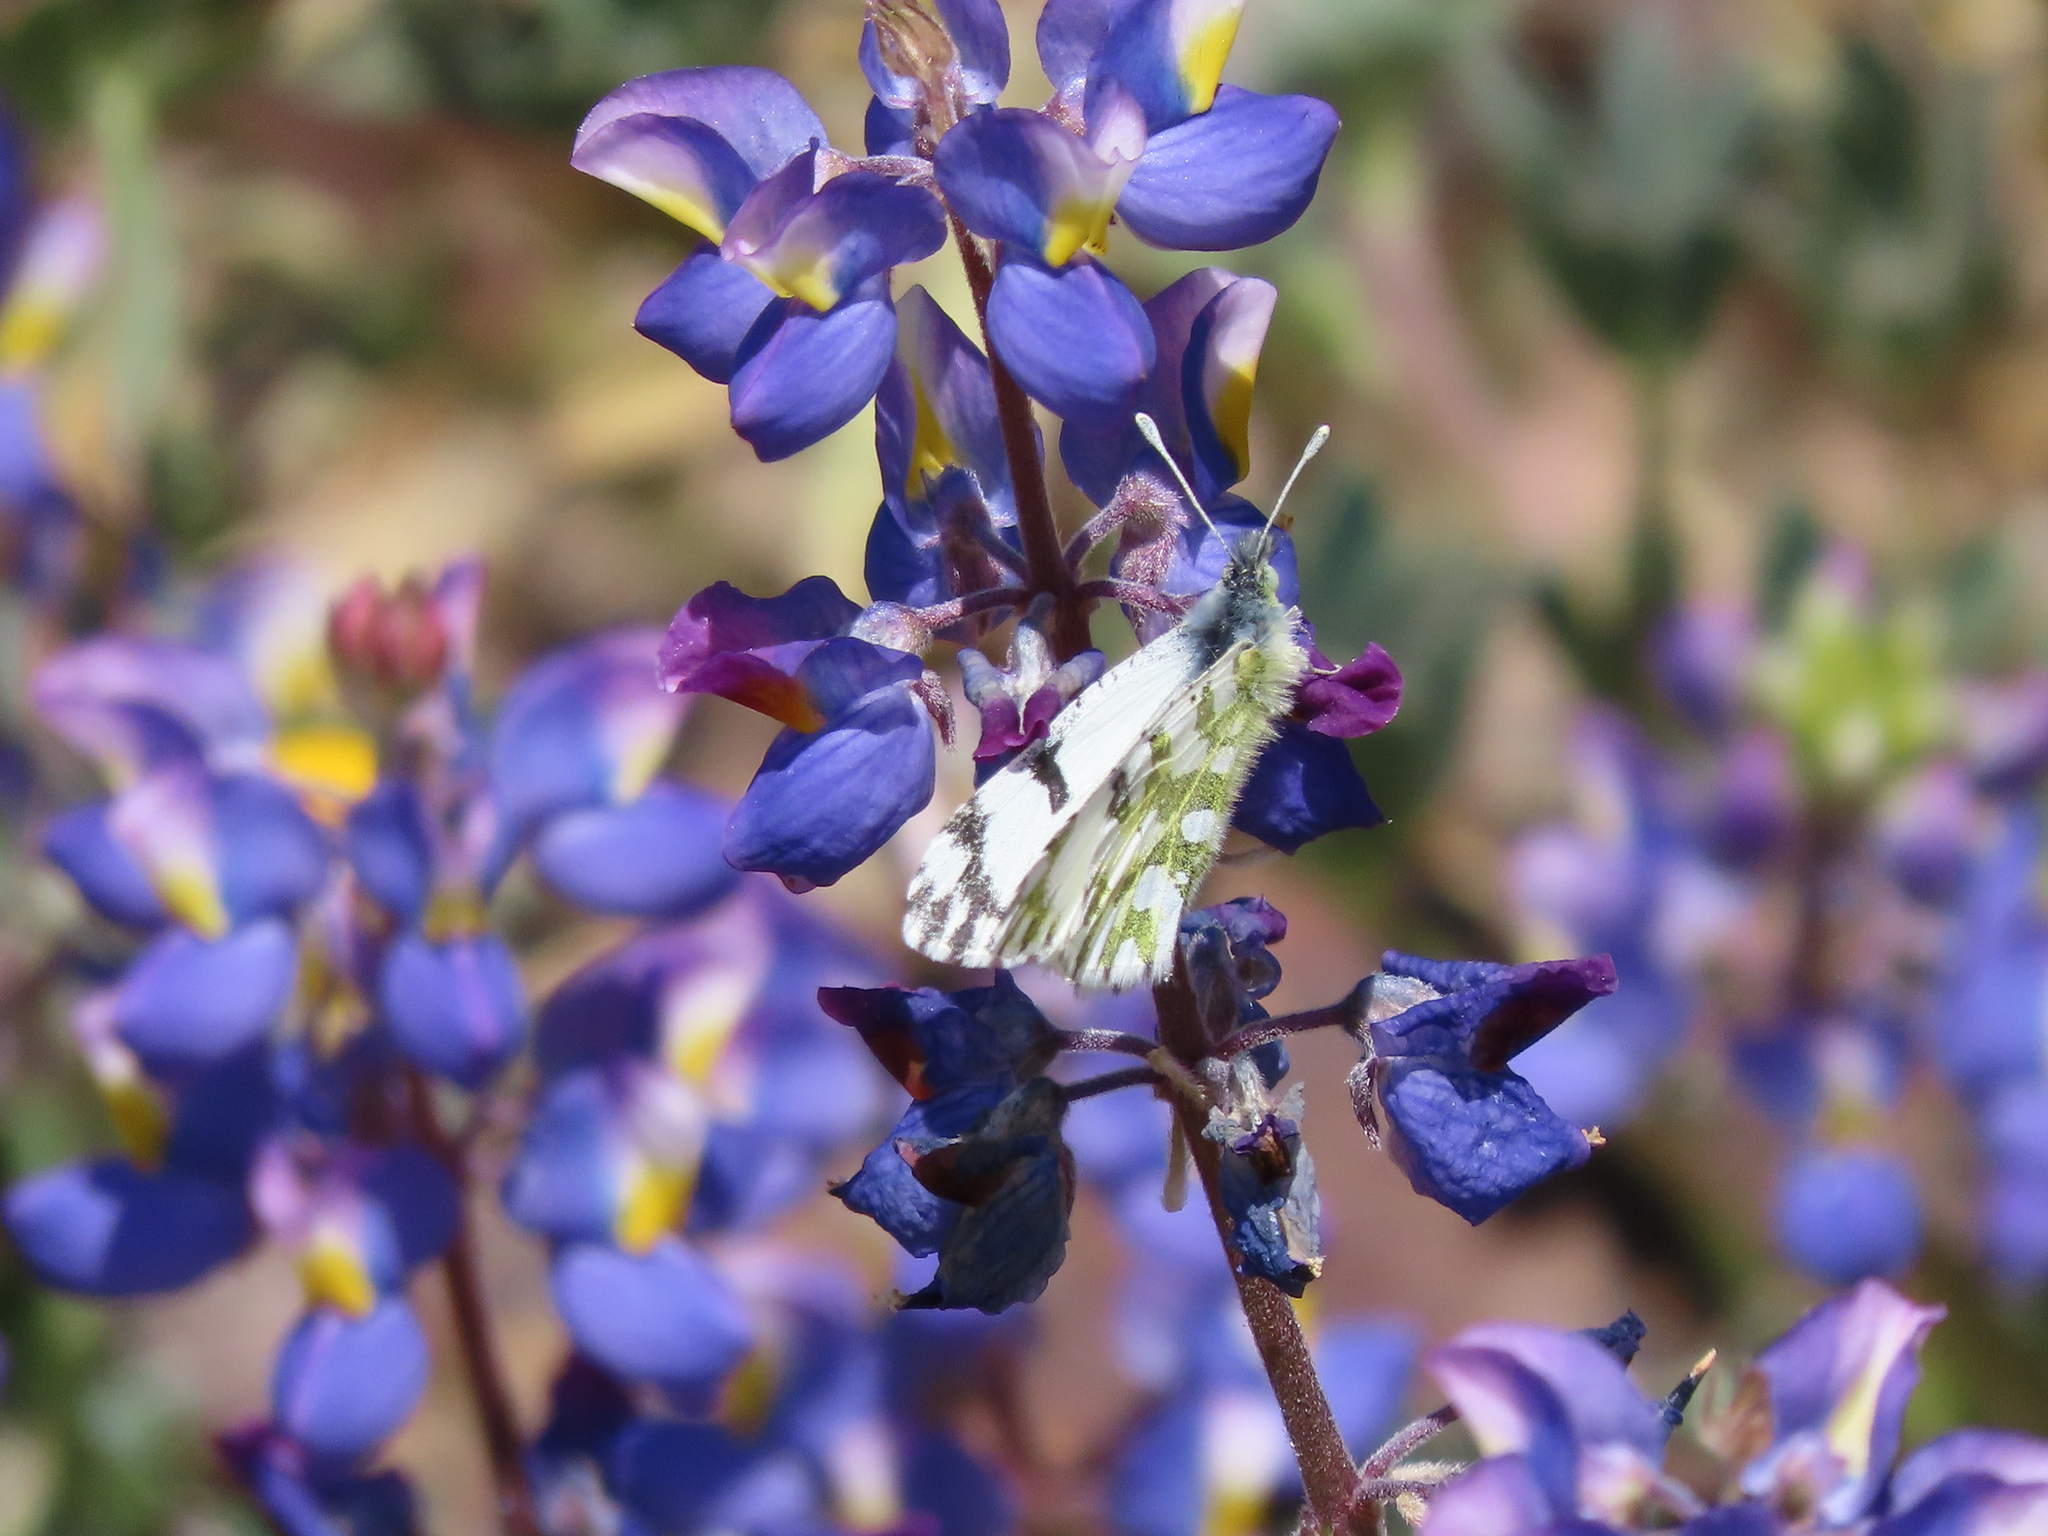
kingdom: Animalia
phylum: Arthropoda
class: Insecta
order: Lepidoptera
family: Pieridae
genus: Euchloe
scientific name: Euchloe hyantis
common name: California marble
